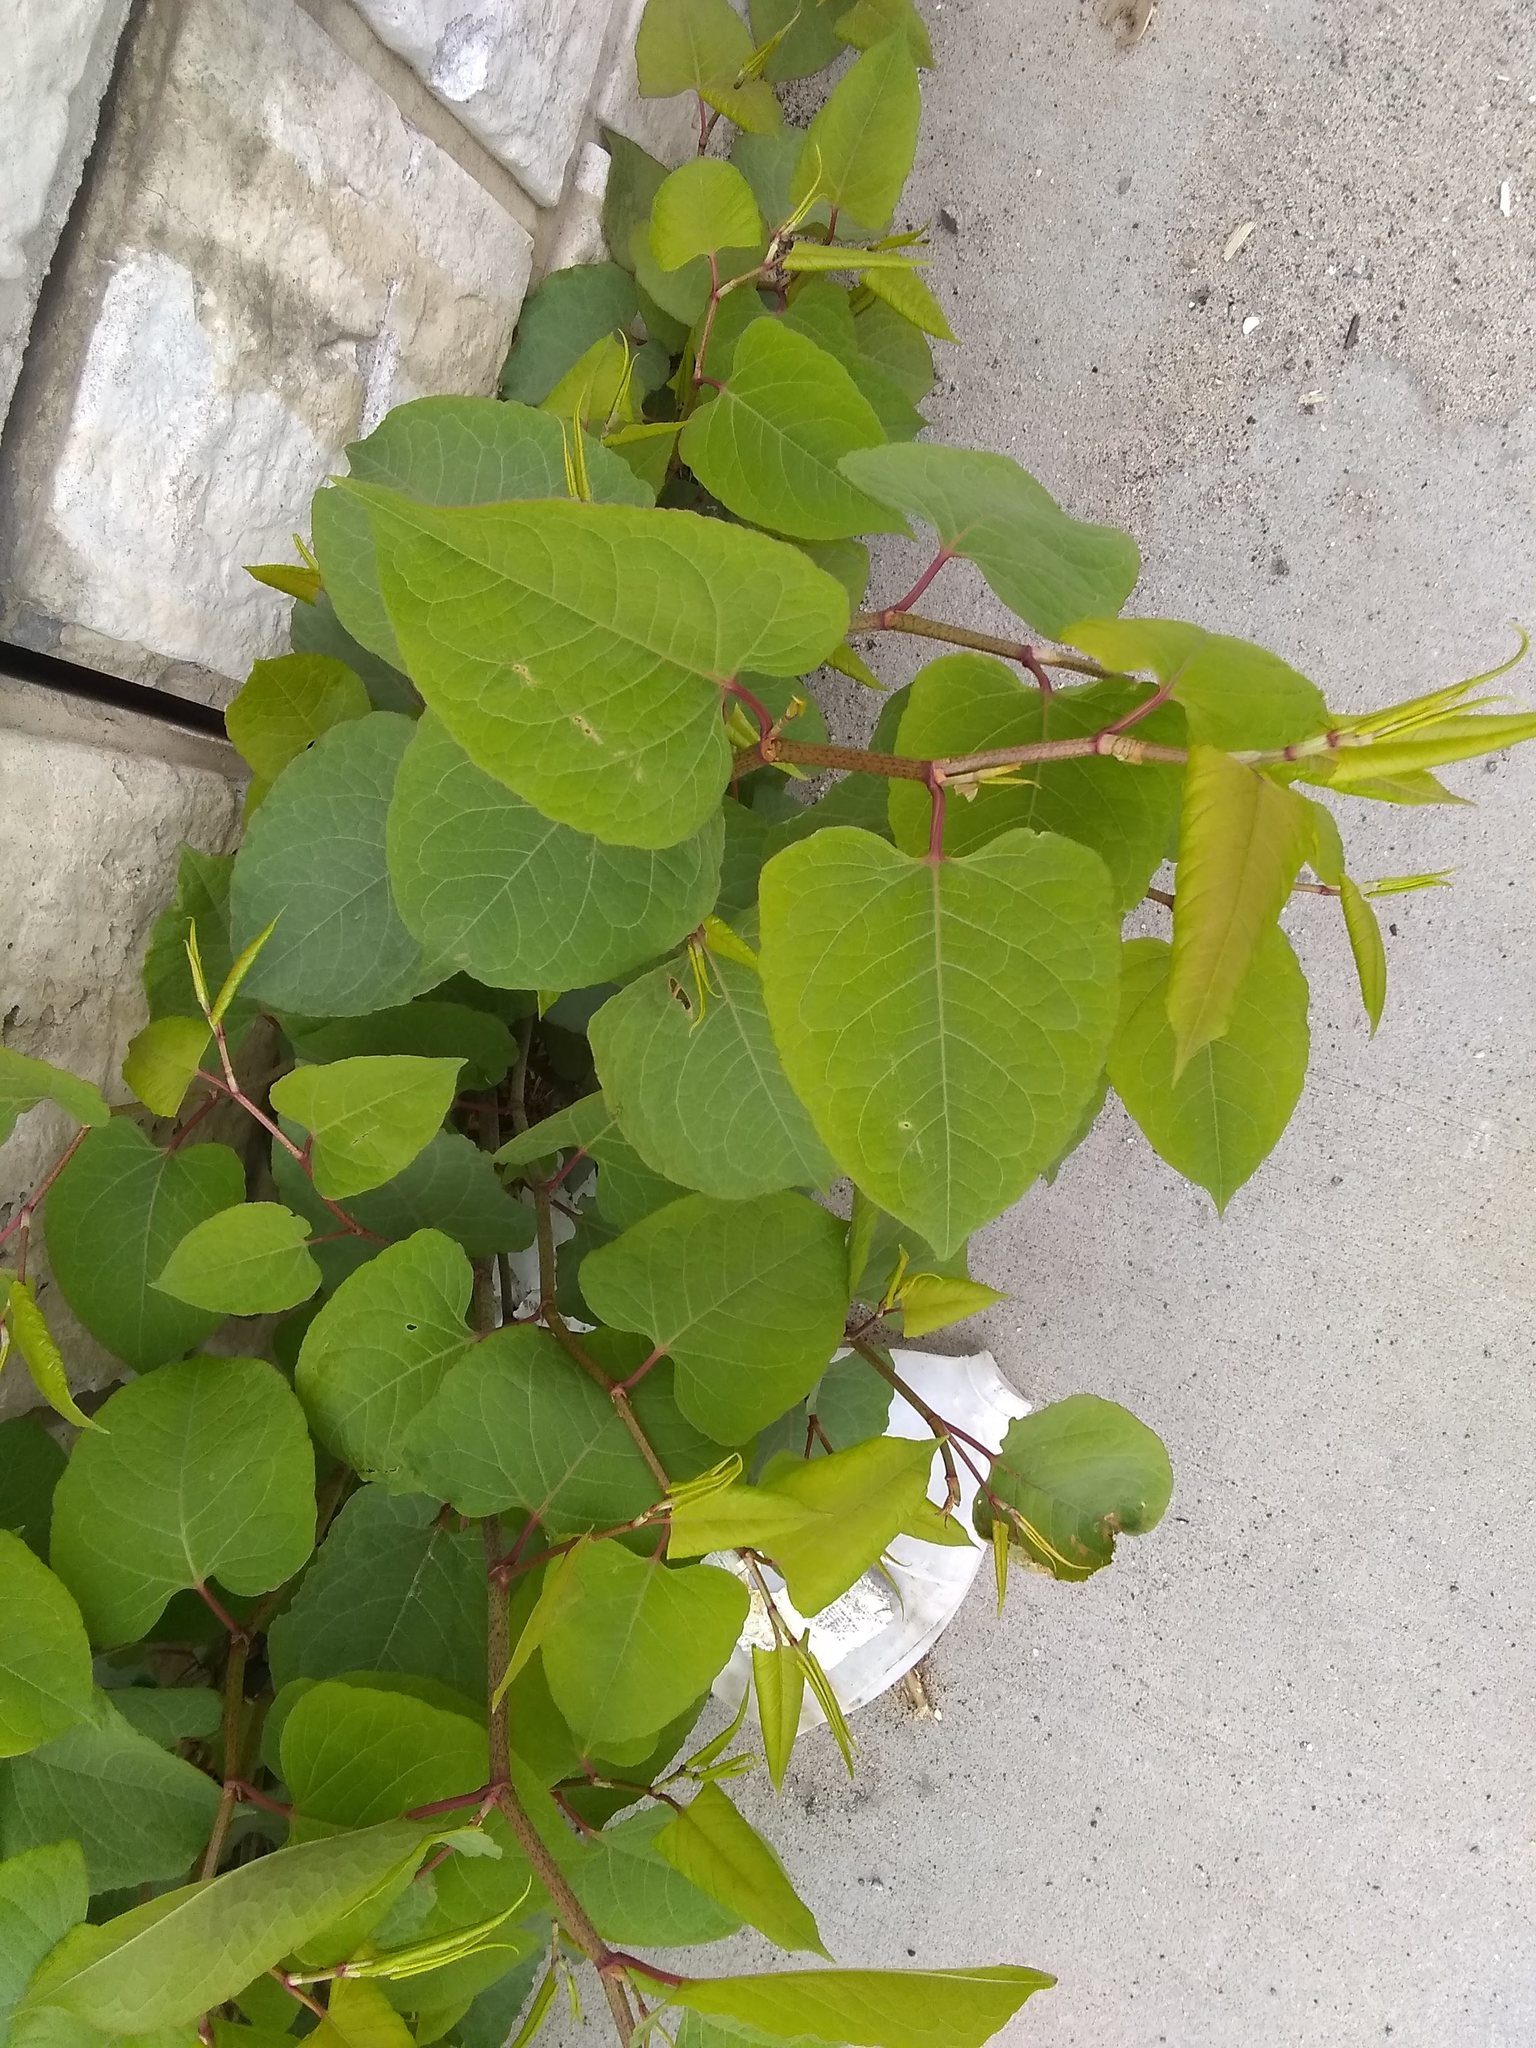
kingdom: Plantae
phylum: Tracheophyta
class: Magnoliopsida
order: Caryophyllales
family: Polygonaceae
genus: Reynoutria
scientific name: Reynoutria japonica
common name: Japanese knotweed
